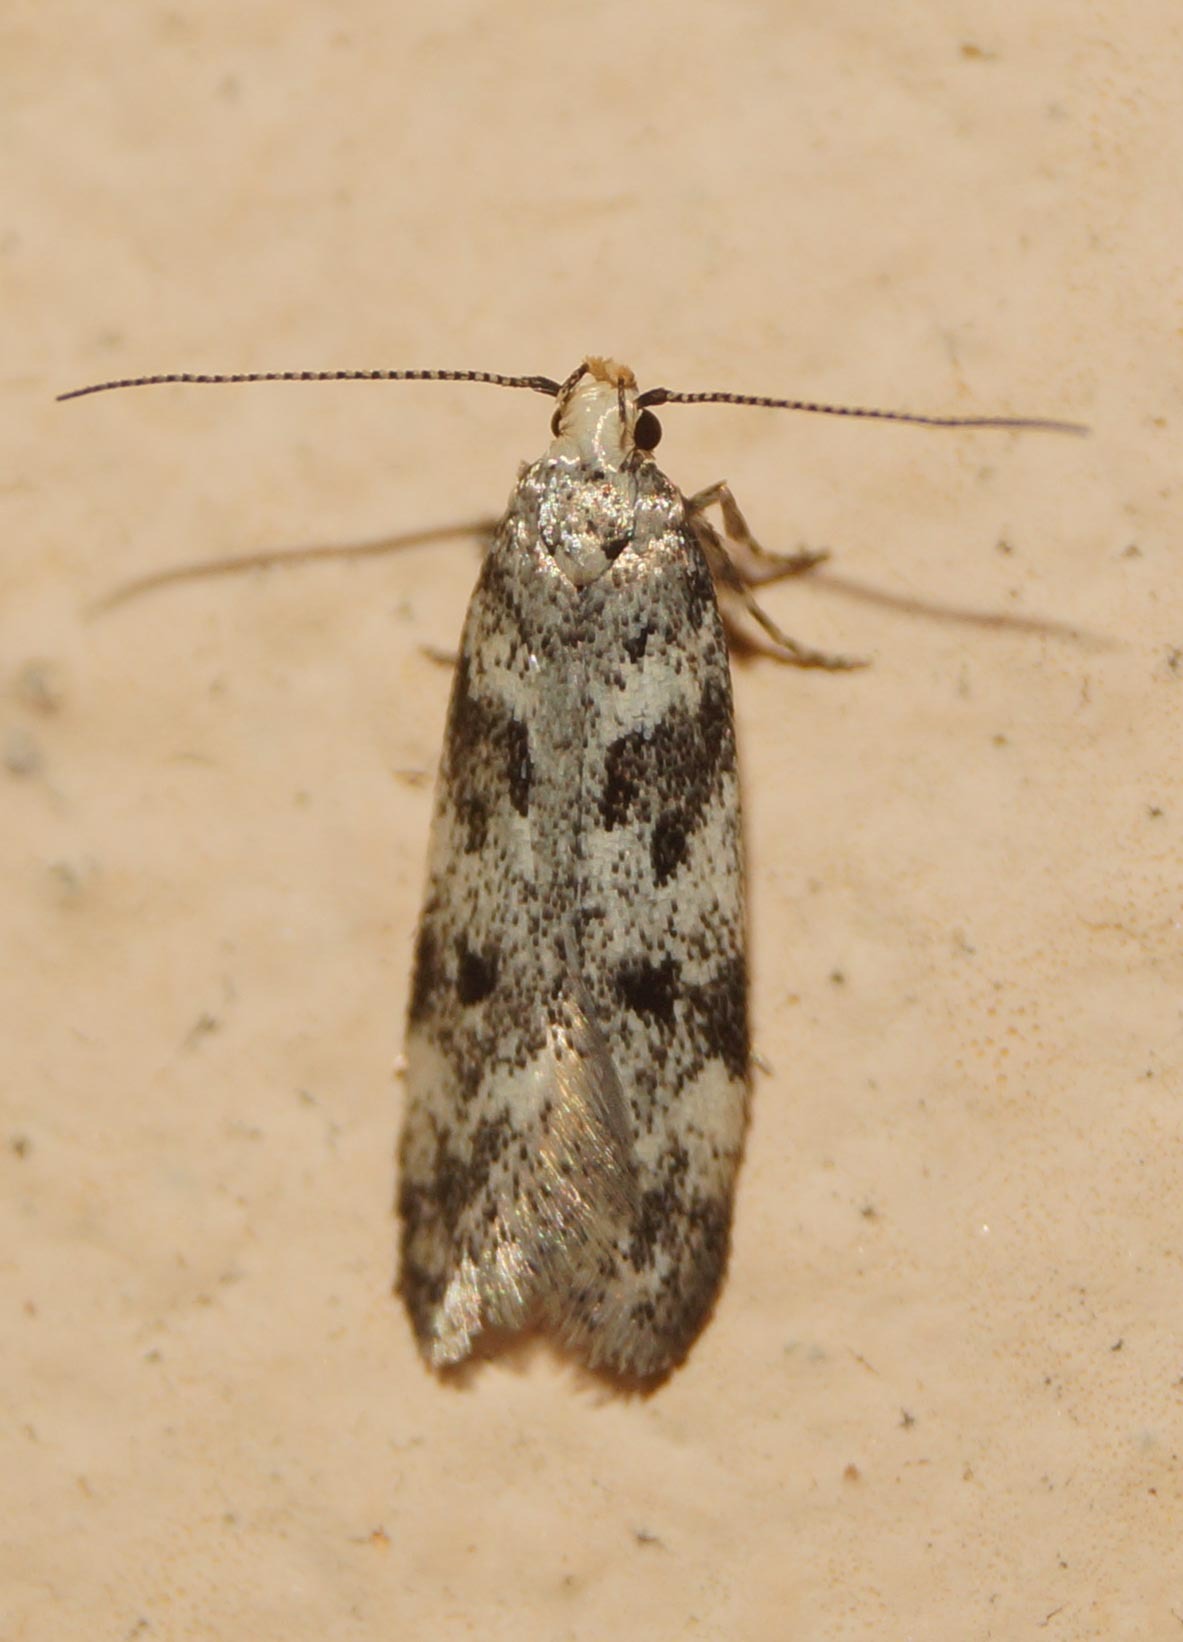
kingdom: Animalia
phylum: Arthropoda
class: Insecta
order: Lepidoptera
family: Gelechiidae
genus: Chionodes
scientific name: Chionodes electella
